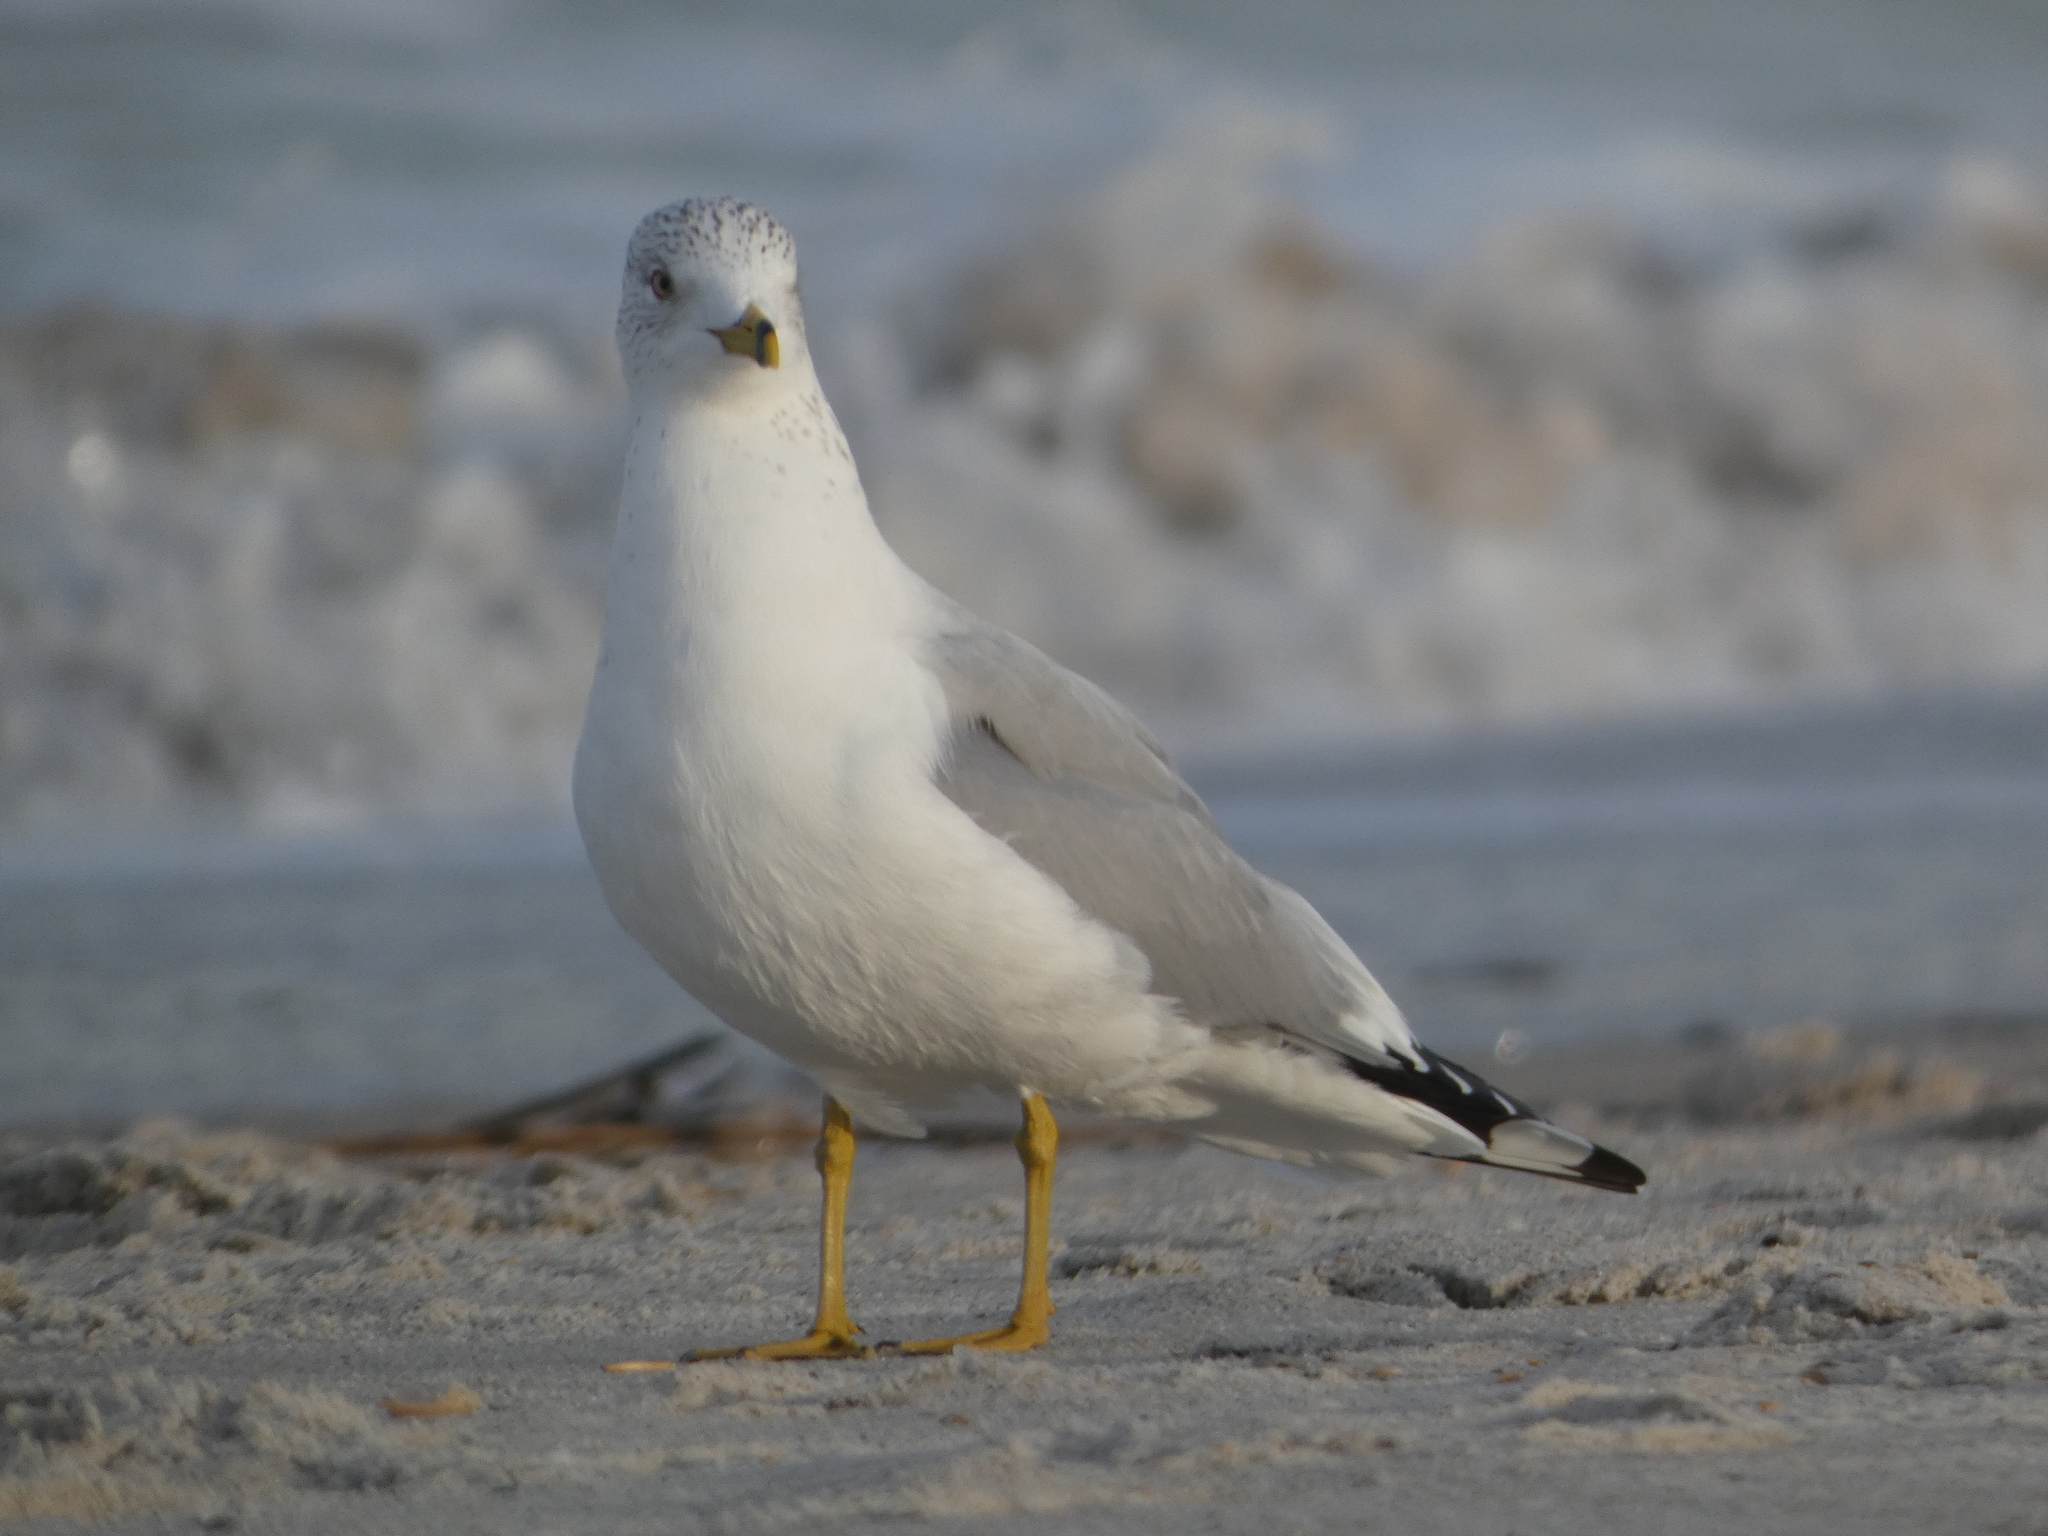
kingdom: Animalia
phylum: Chordata
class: Aves
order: Charadriiformes
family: Laridae
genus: Larus
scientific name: Larus delawarensis
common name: Ring-billed gull
